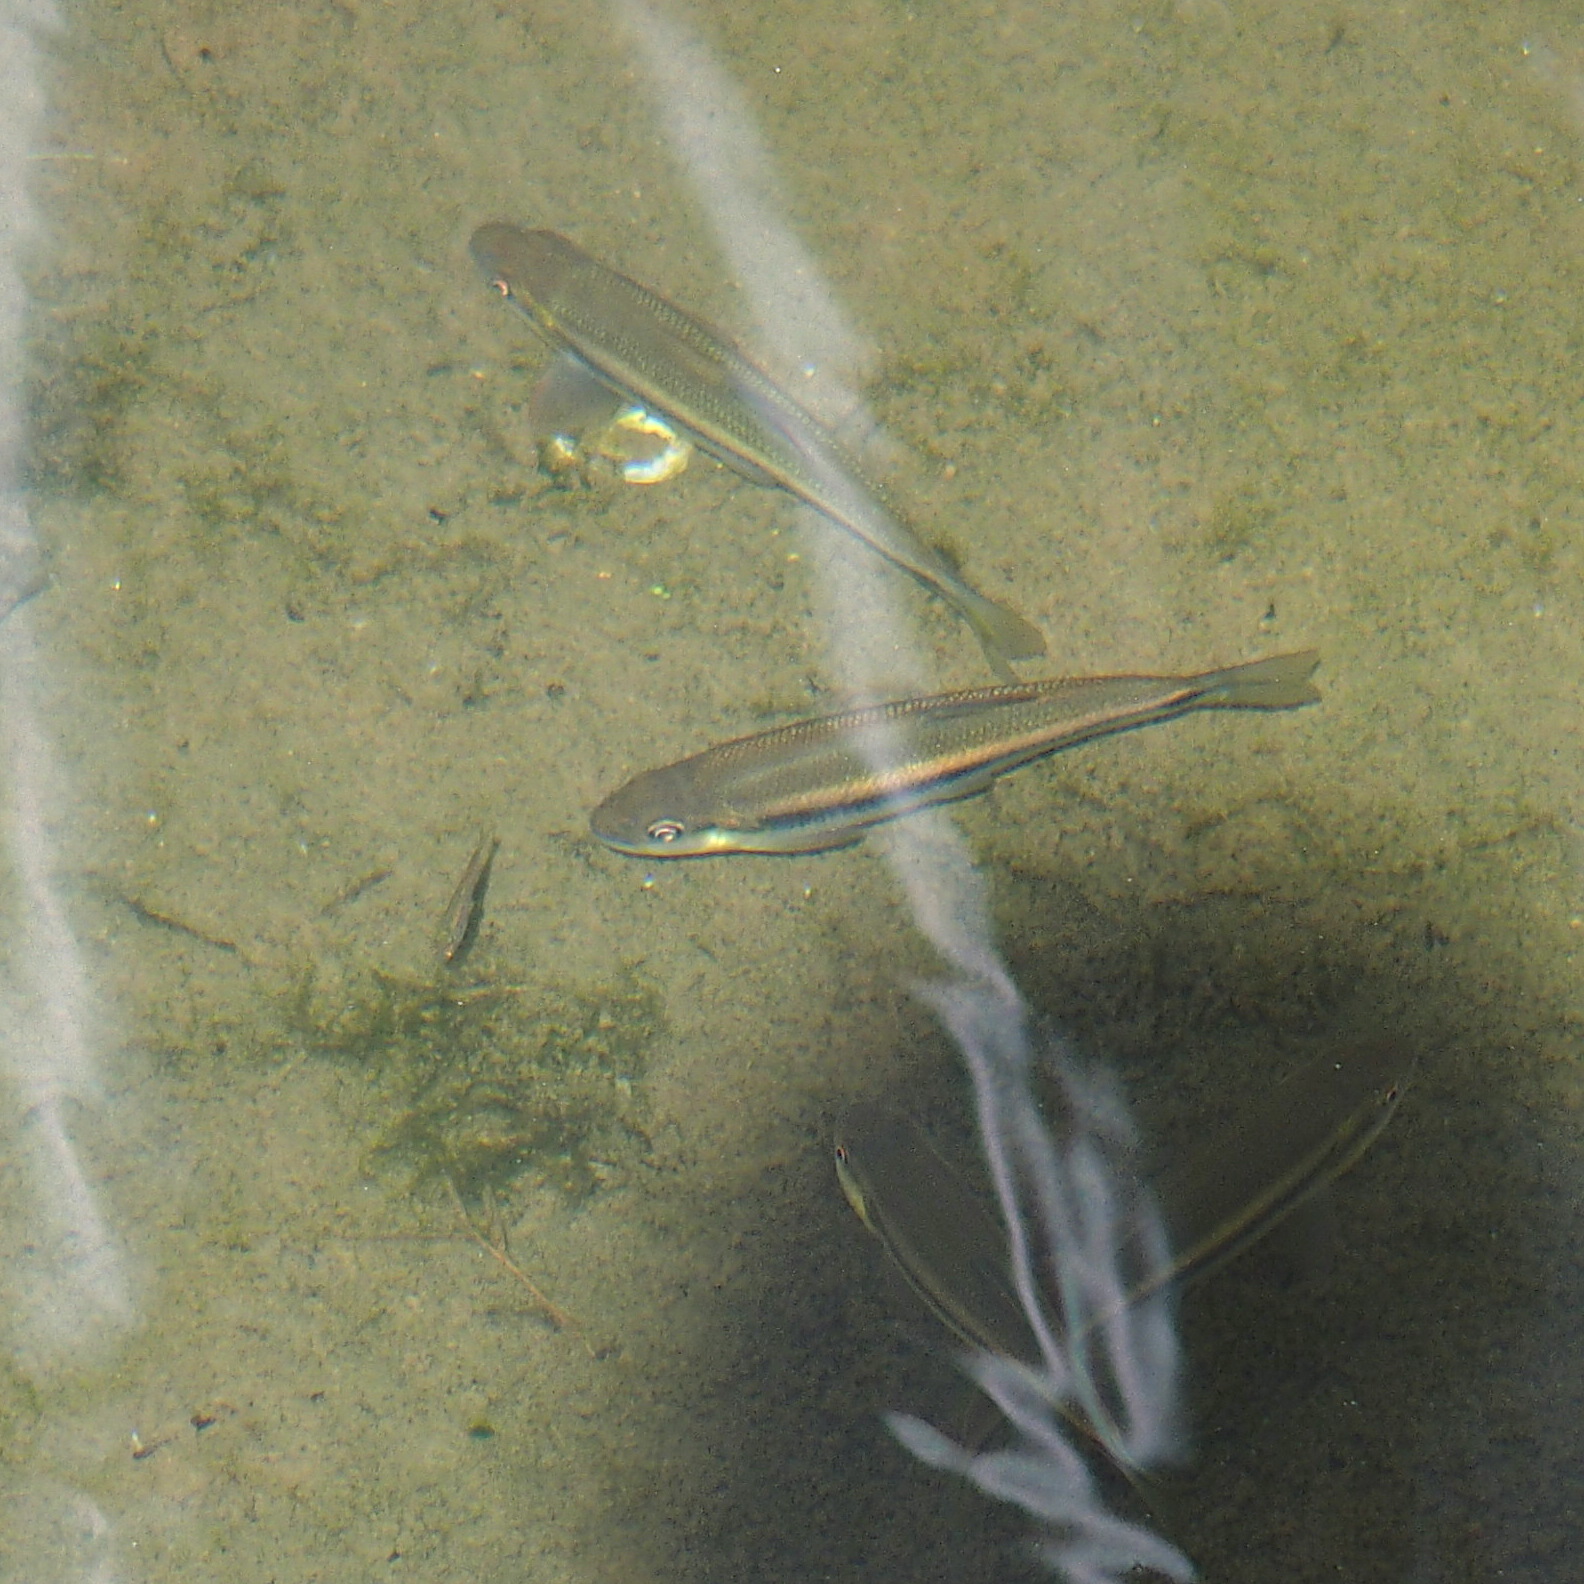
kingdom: Animalia
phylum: Chordata
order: Cypriniformes
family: Cyprinidae
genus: Candidia
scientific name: Candidia barbata
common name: Lake candidus dace
